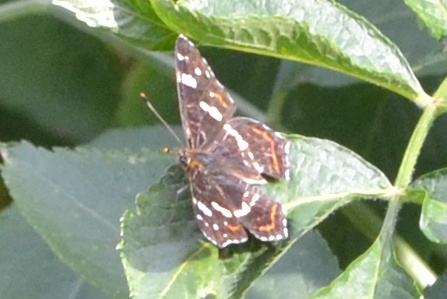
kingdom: Animalia
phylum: Arthropoda
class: Insecta
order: Lepidoptera
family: Nymphalidae
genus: Araschnia
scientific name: Araschnia levana
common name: Map butterfly
